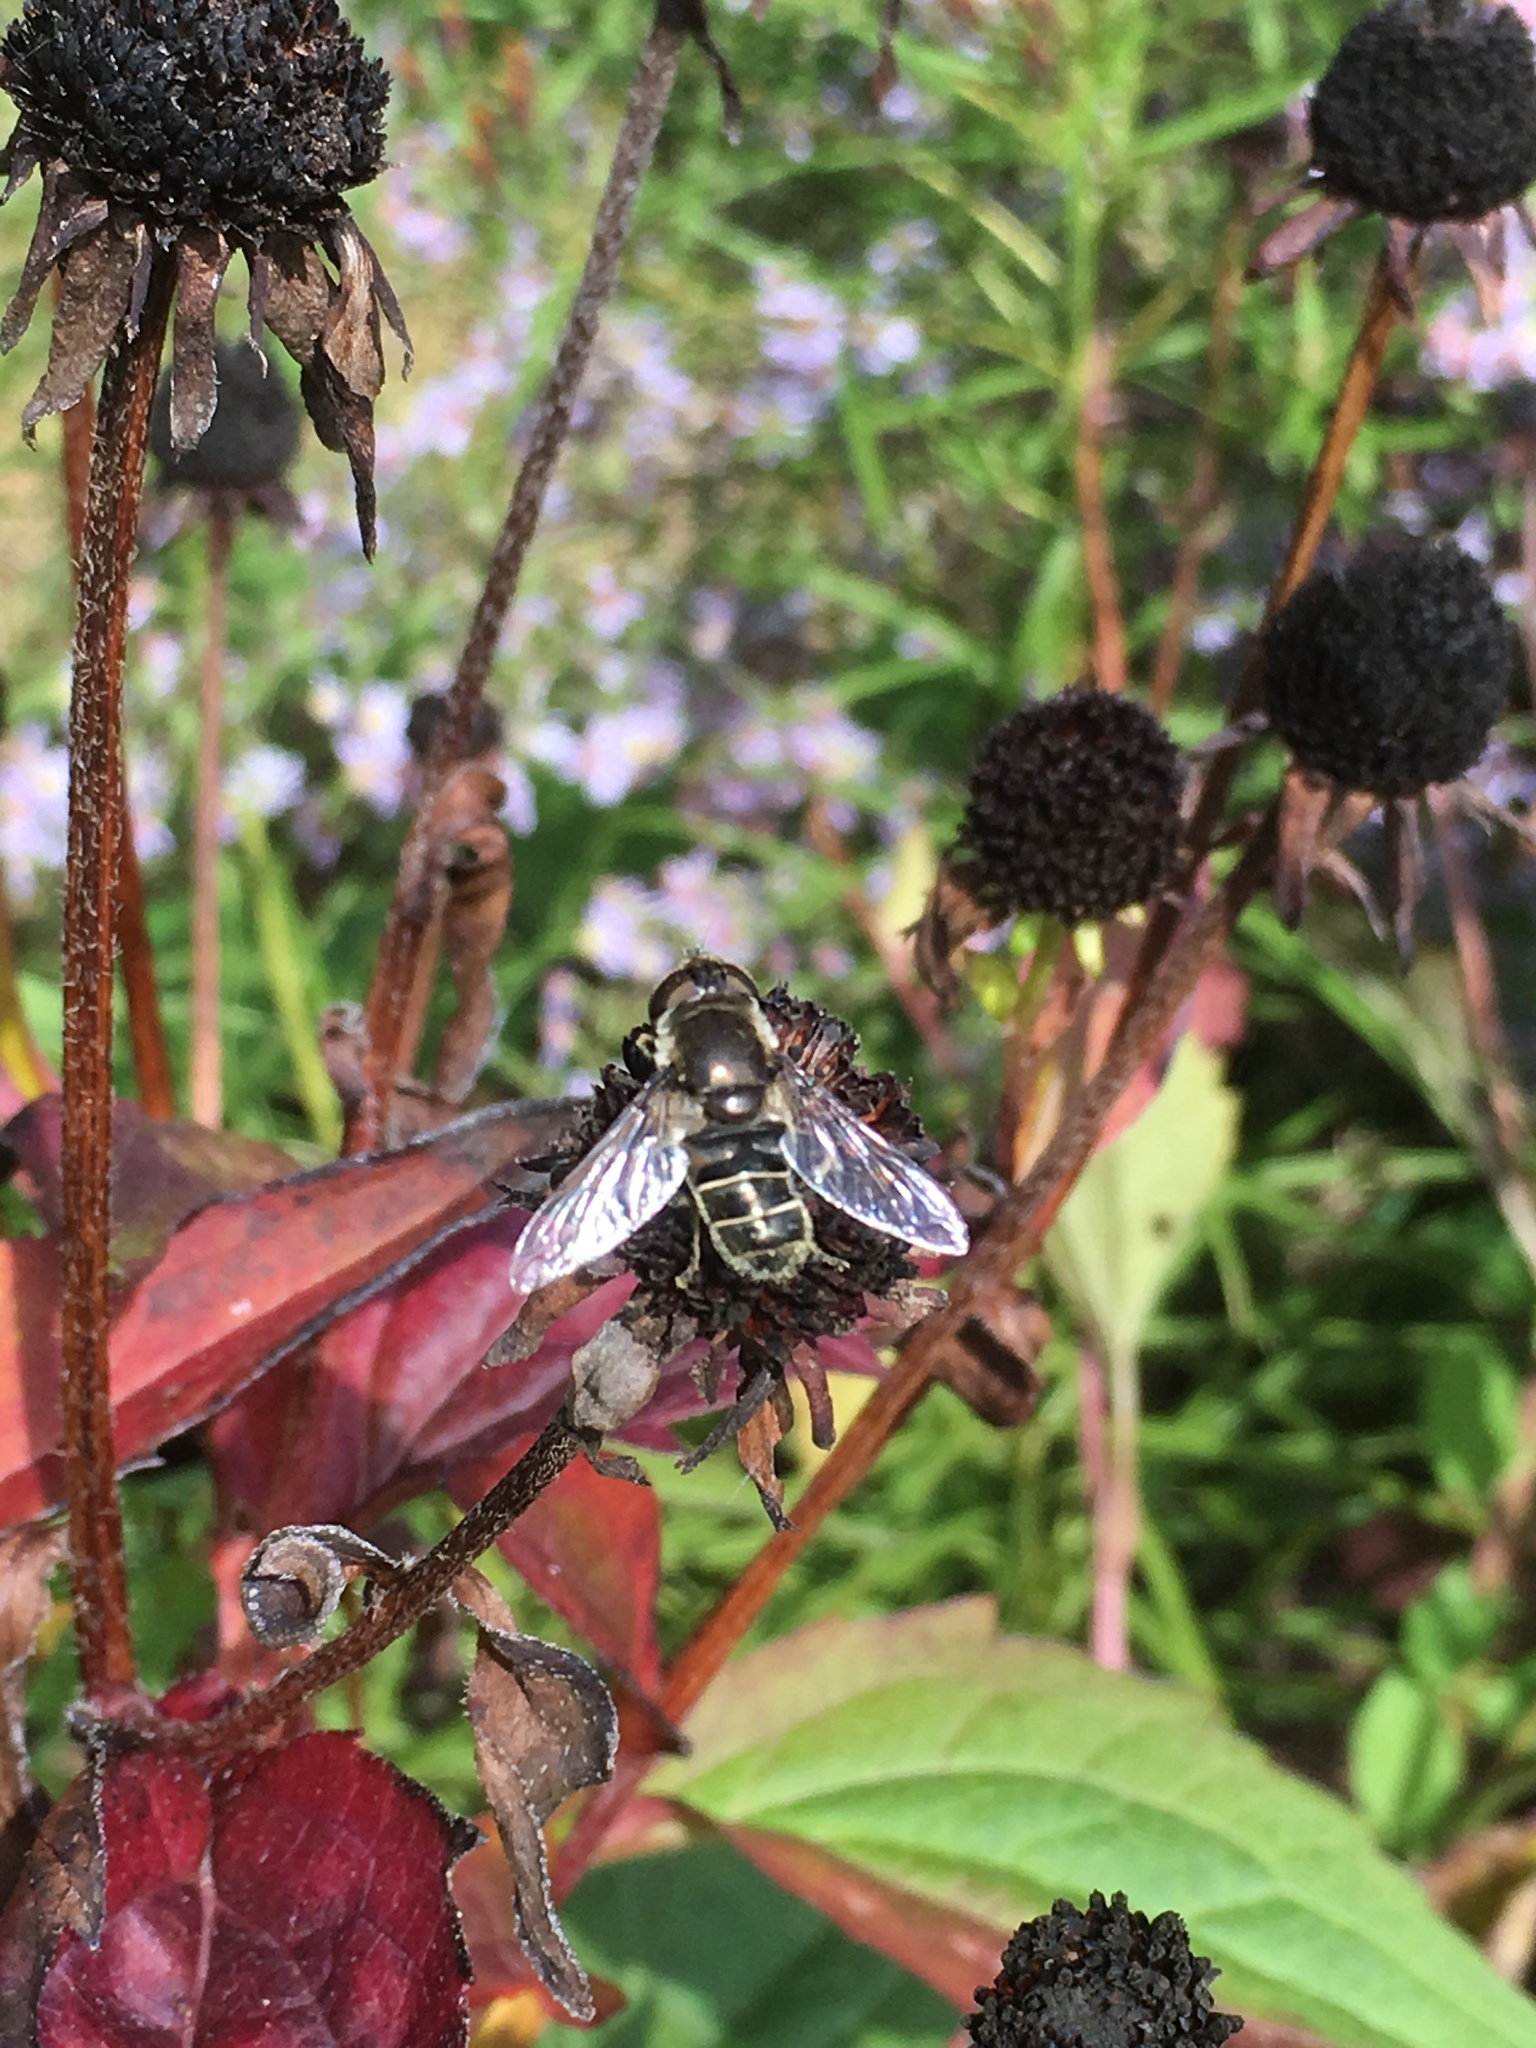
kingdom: Animalia
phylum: Arthropoda
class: Insecta
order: Diptera
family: Syrphidae
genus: Eristalis
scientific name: Eristalis dimidiata
